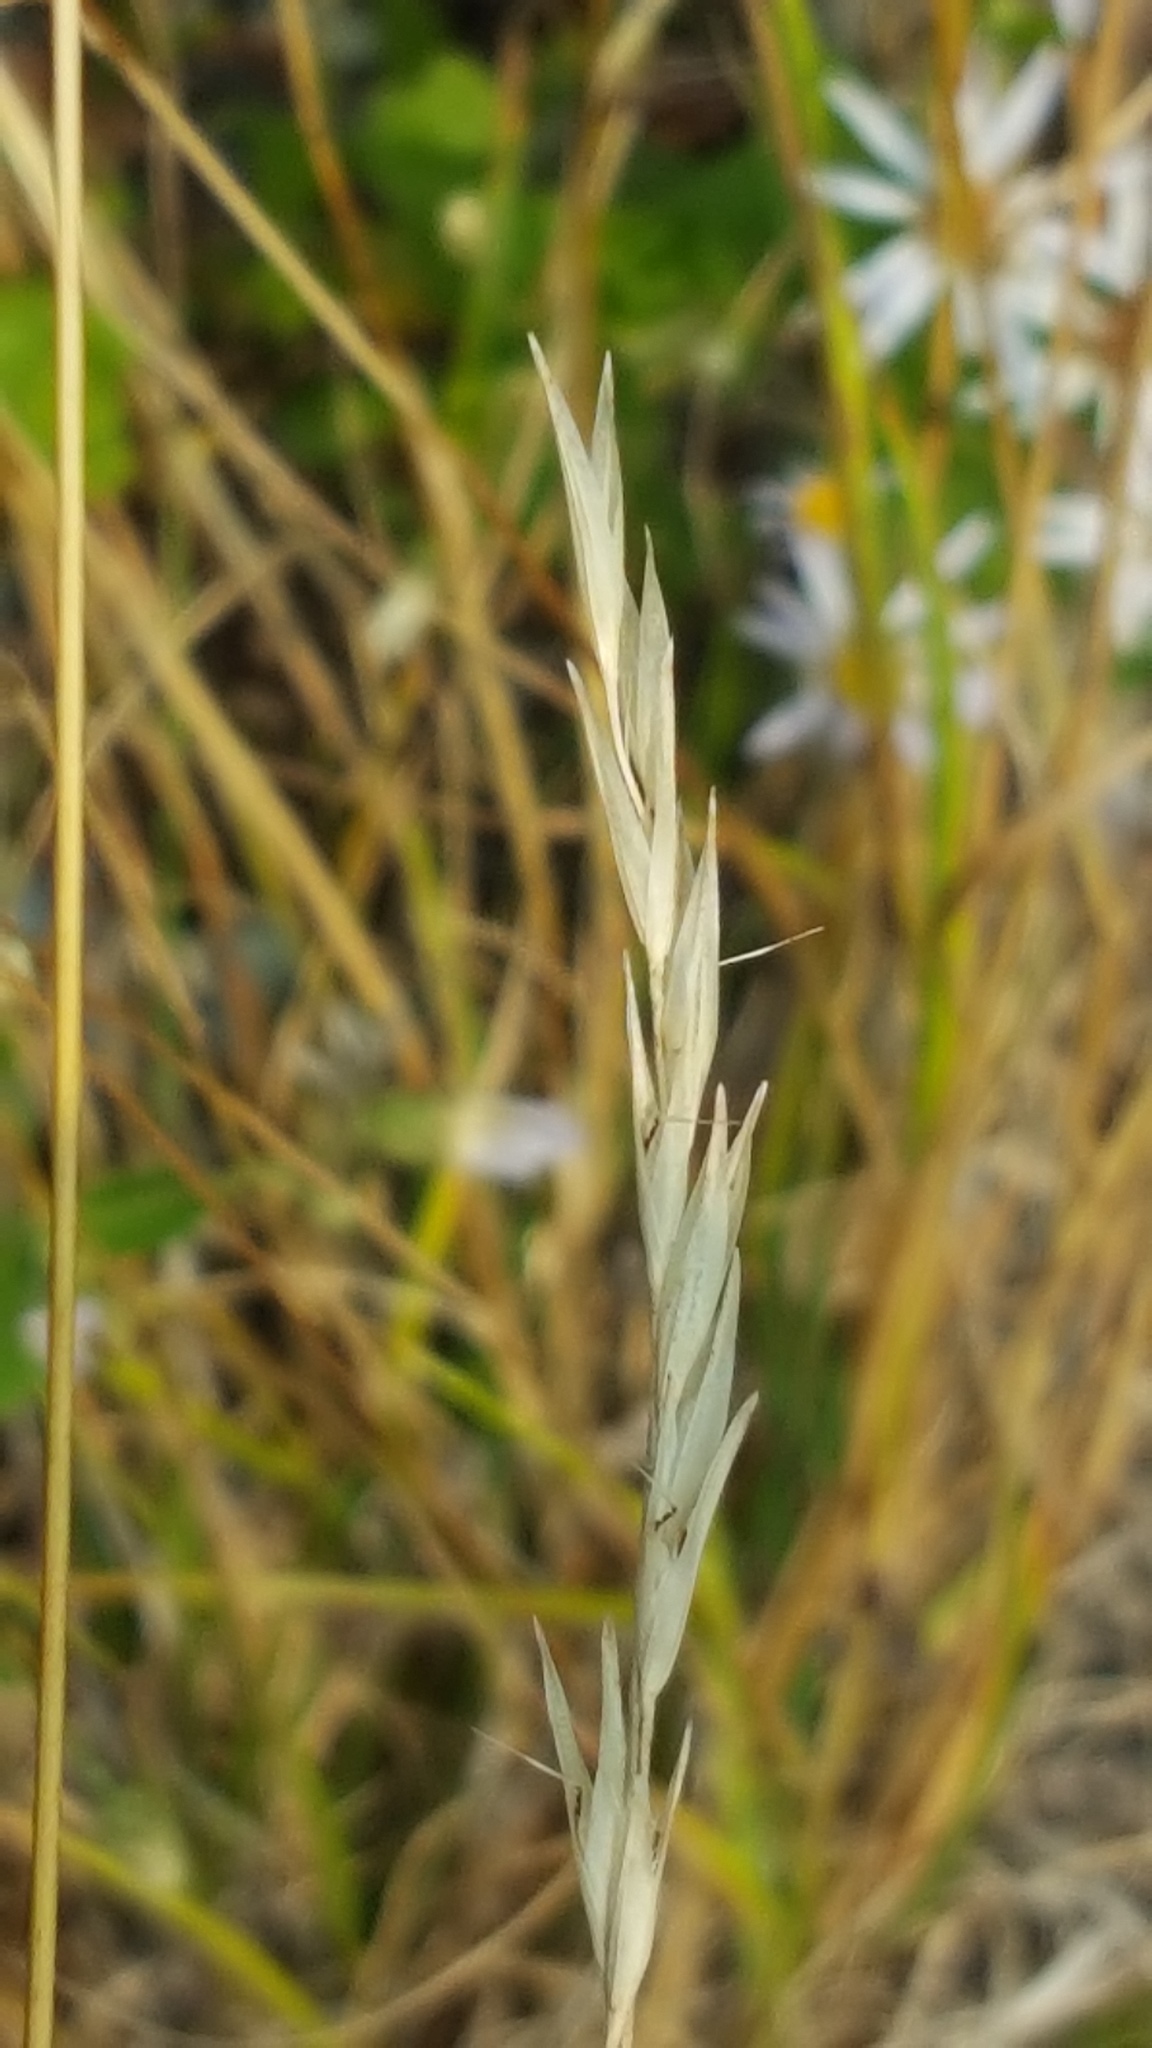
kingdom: Plantae
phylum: Tracheophyta
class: Liliopsida
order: Poales
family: Poaceae
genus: Danthonia
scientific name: Danthonia spicata
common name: Common wild oatgrass
